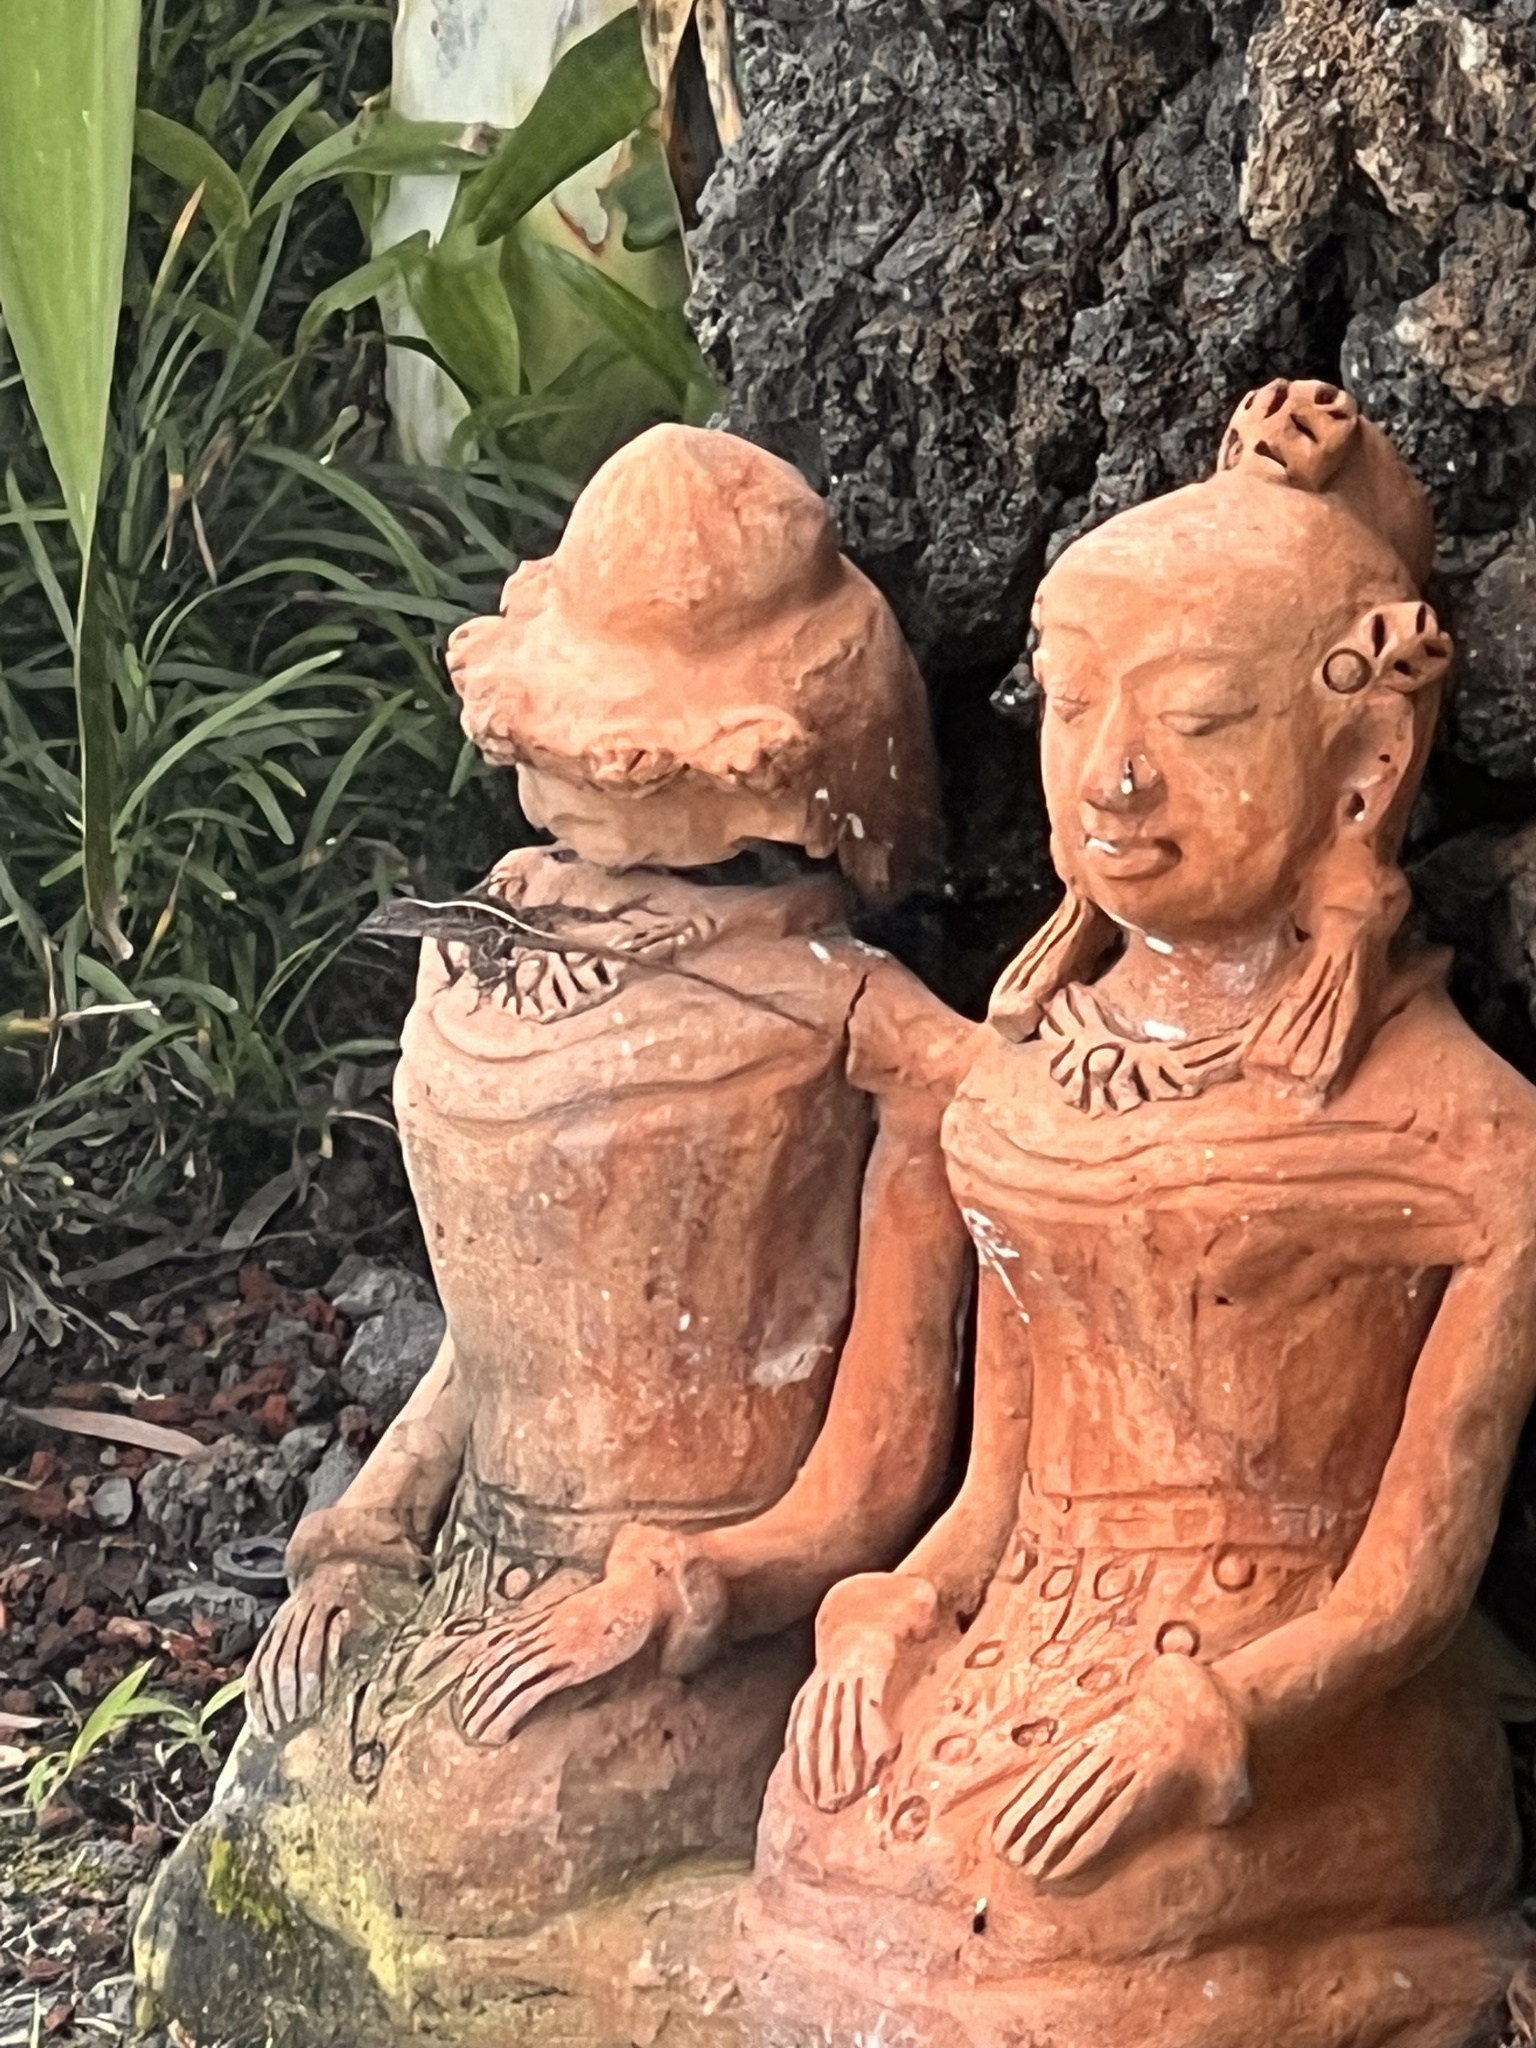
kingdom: Animalia
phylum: Chordata
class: Squamata
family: Dactyloidae
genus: Anolis
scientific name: Anolis sagrei
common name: Brown anole
